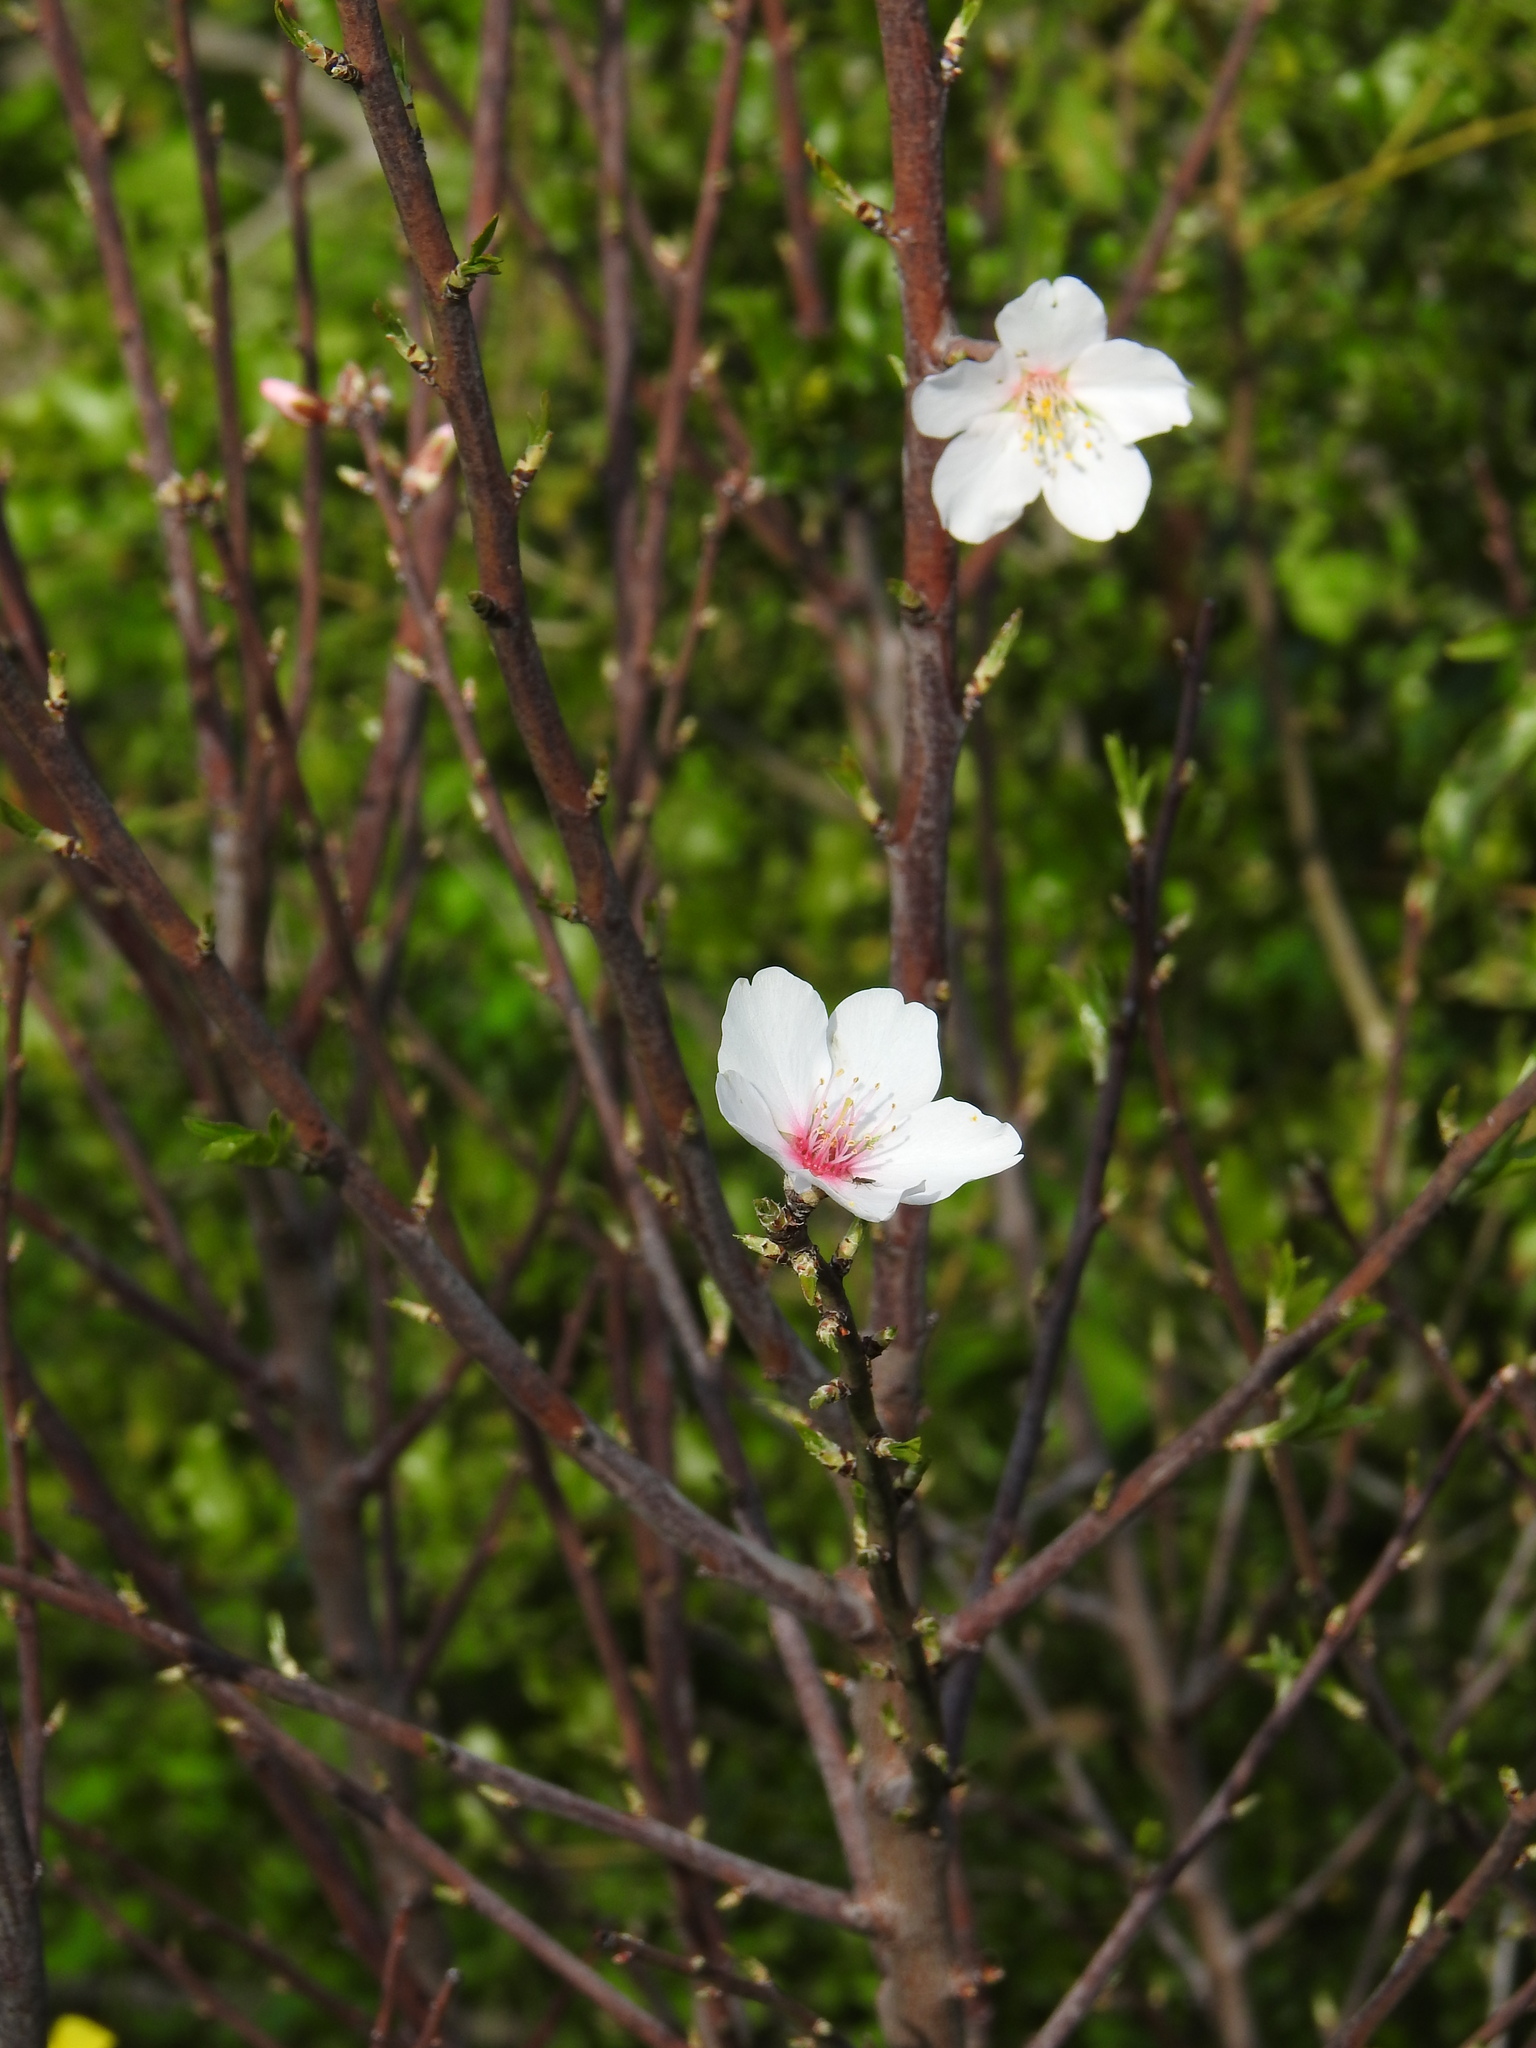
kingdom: Plantae
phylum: Tracheophyta
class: Magnoliopsida
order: Rosales
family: Rosaceae
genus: Prunus
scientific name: Prunus amygdalus
